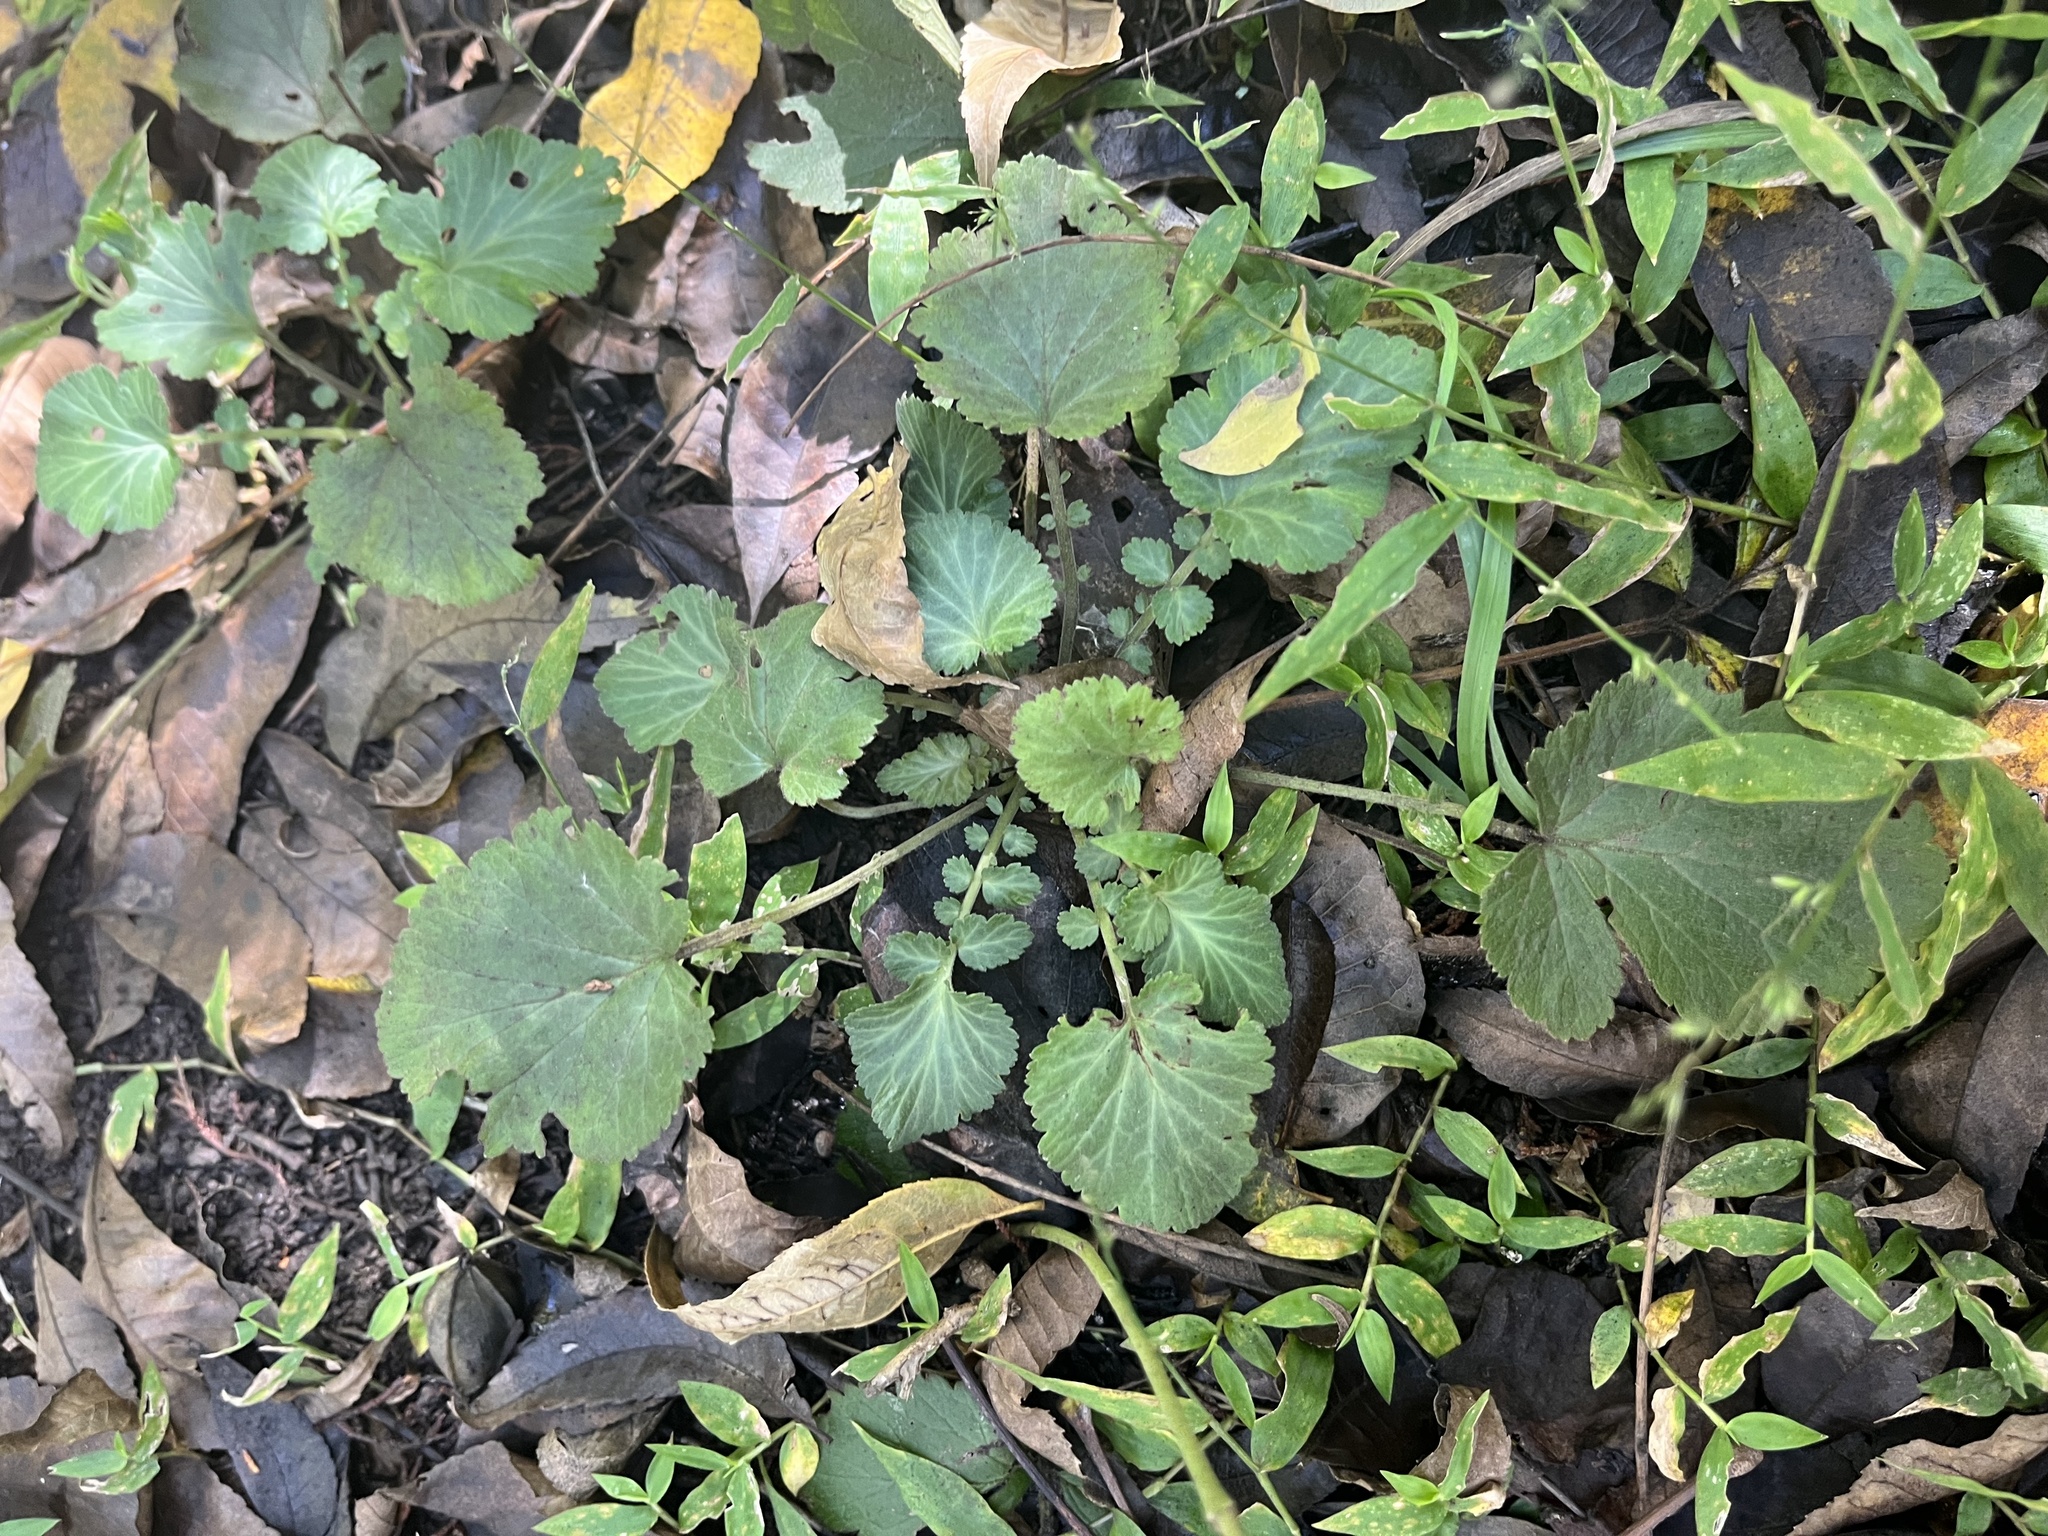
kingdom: Plantae
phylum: Tracheophyta
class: Magnoliopsida
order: Rosales
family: Rosaceae
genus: Geum
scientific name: Geum canadense
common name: White avens
